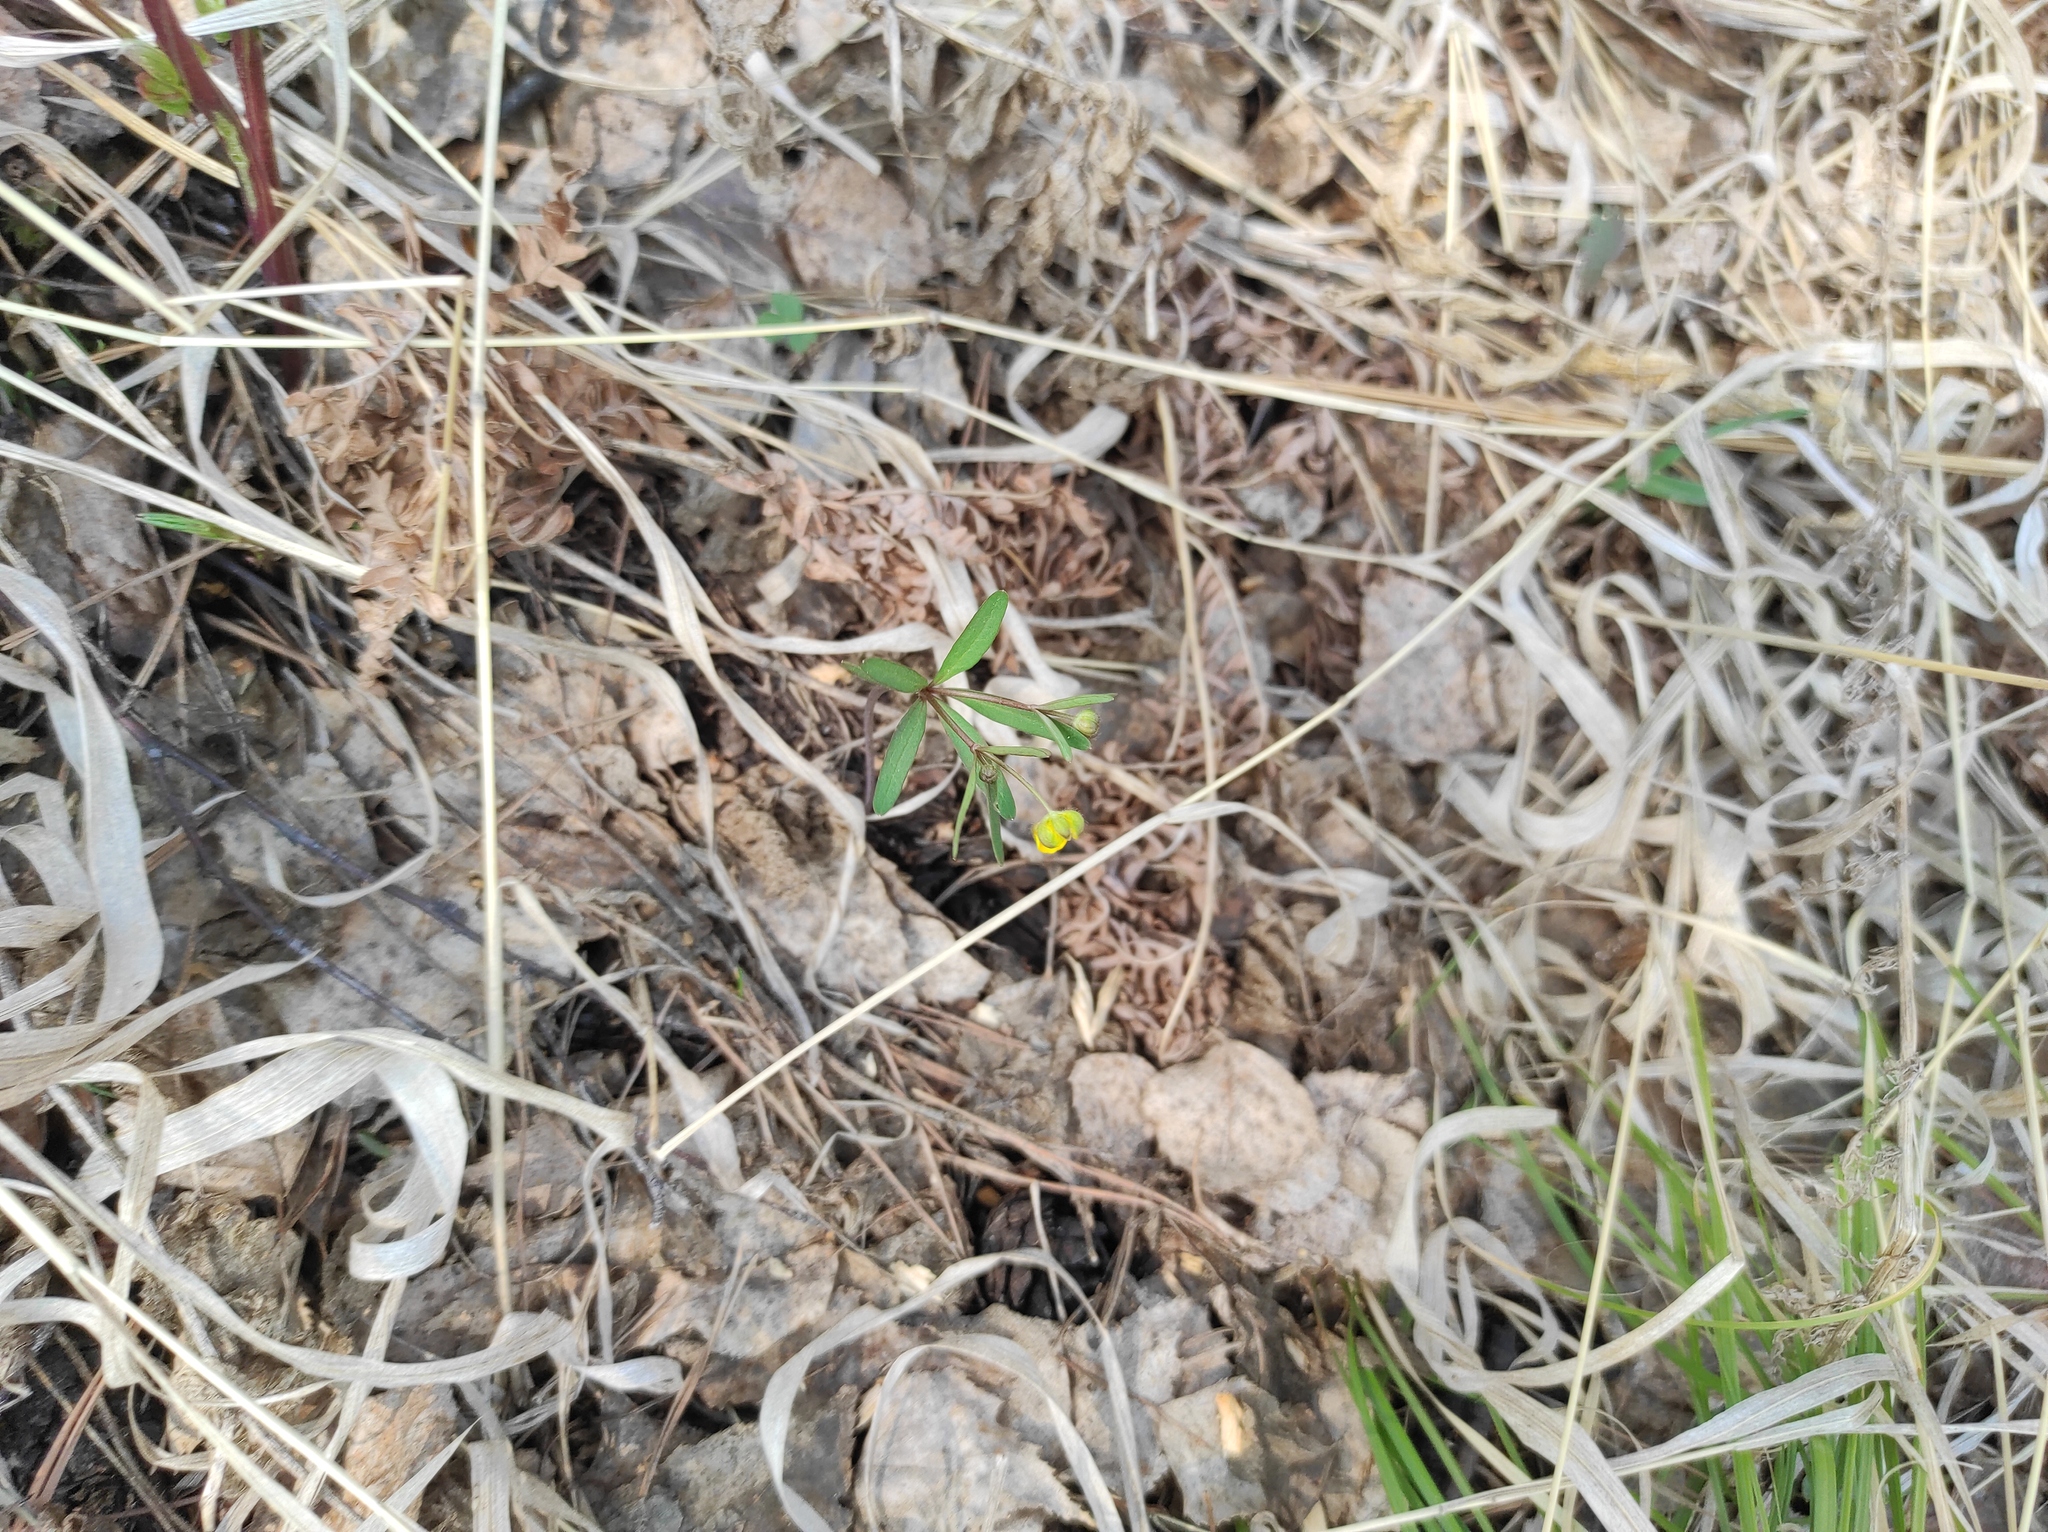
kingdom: Plantae
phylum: Tracheophyta
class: Magnoliopsida
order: Ranunculales
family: Ranunculaceae
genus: Ranunculus
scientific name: Ranunculus monophyllus
